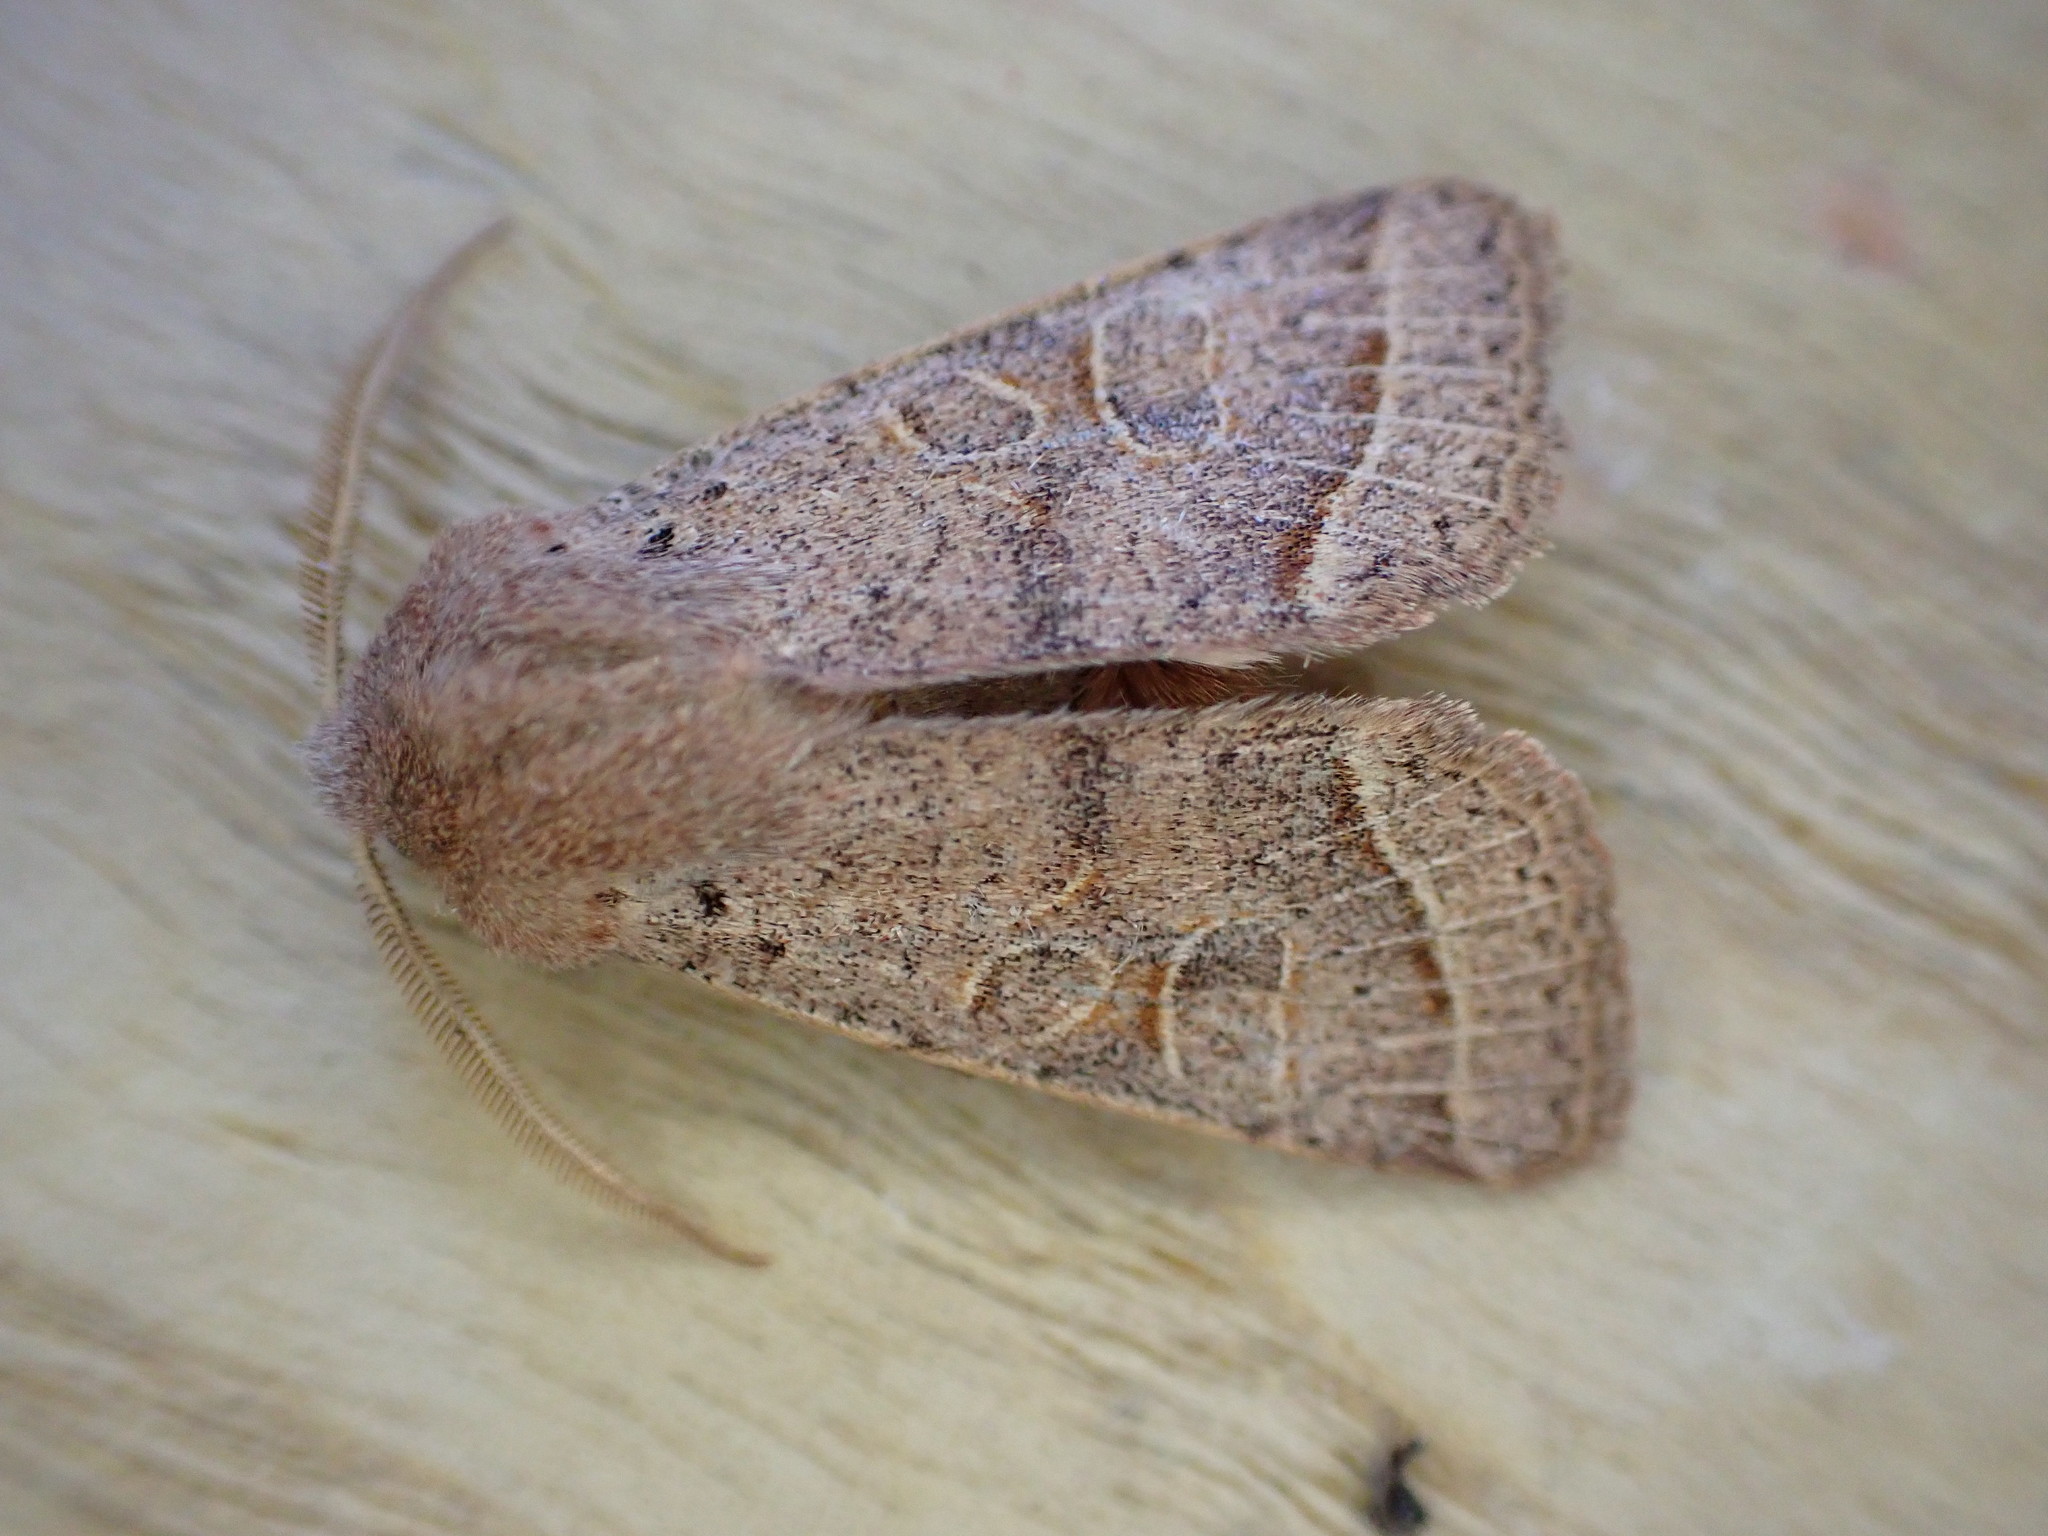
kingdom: Animalia
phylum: Arthropoda
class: Insecta
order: Lepidoptera
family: Noctuidae
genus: Orthosia
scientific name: Orthosia cerasi
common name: Common quaker
